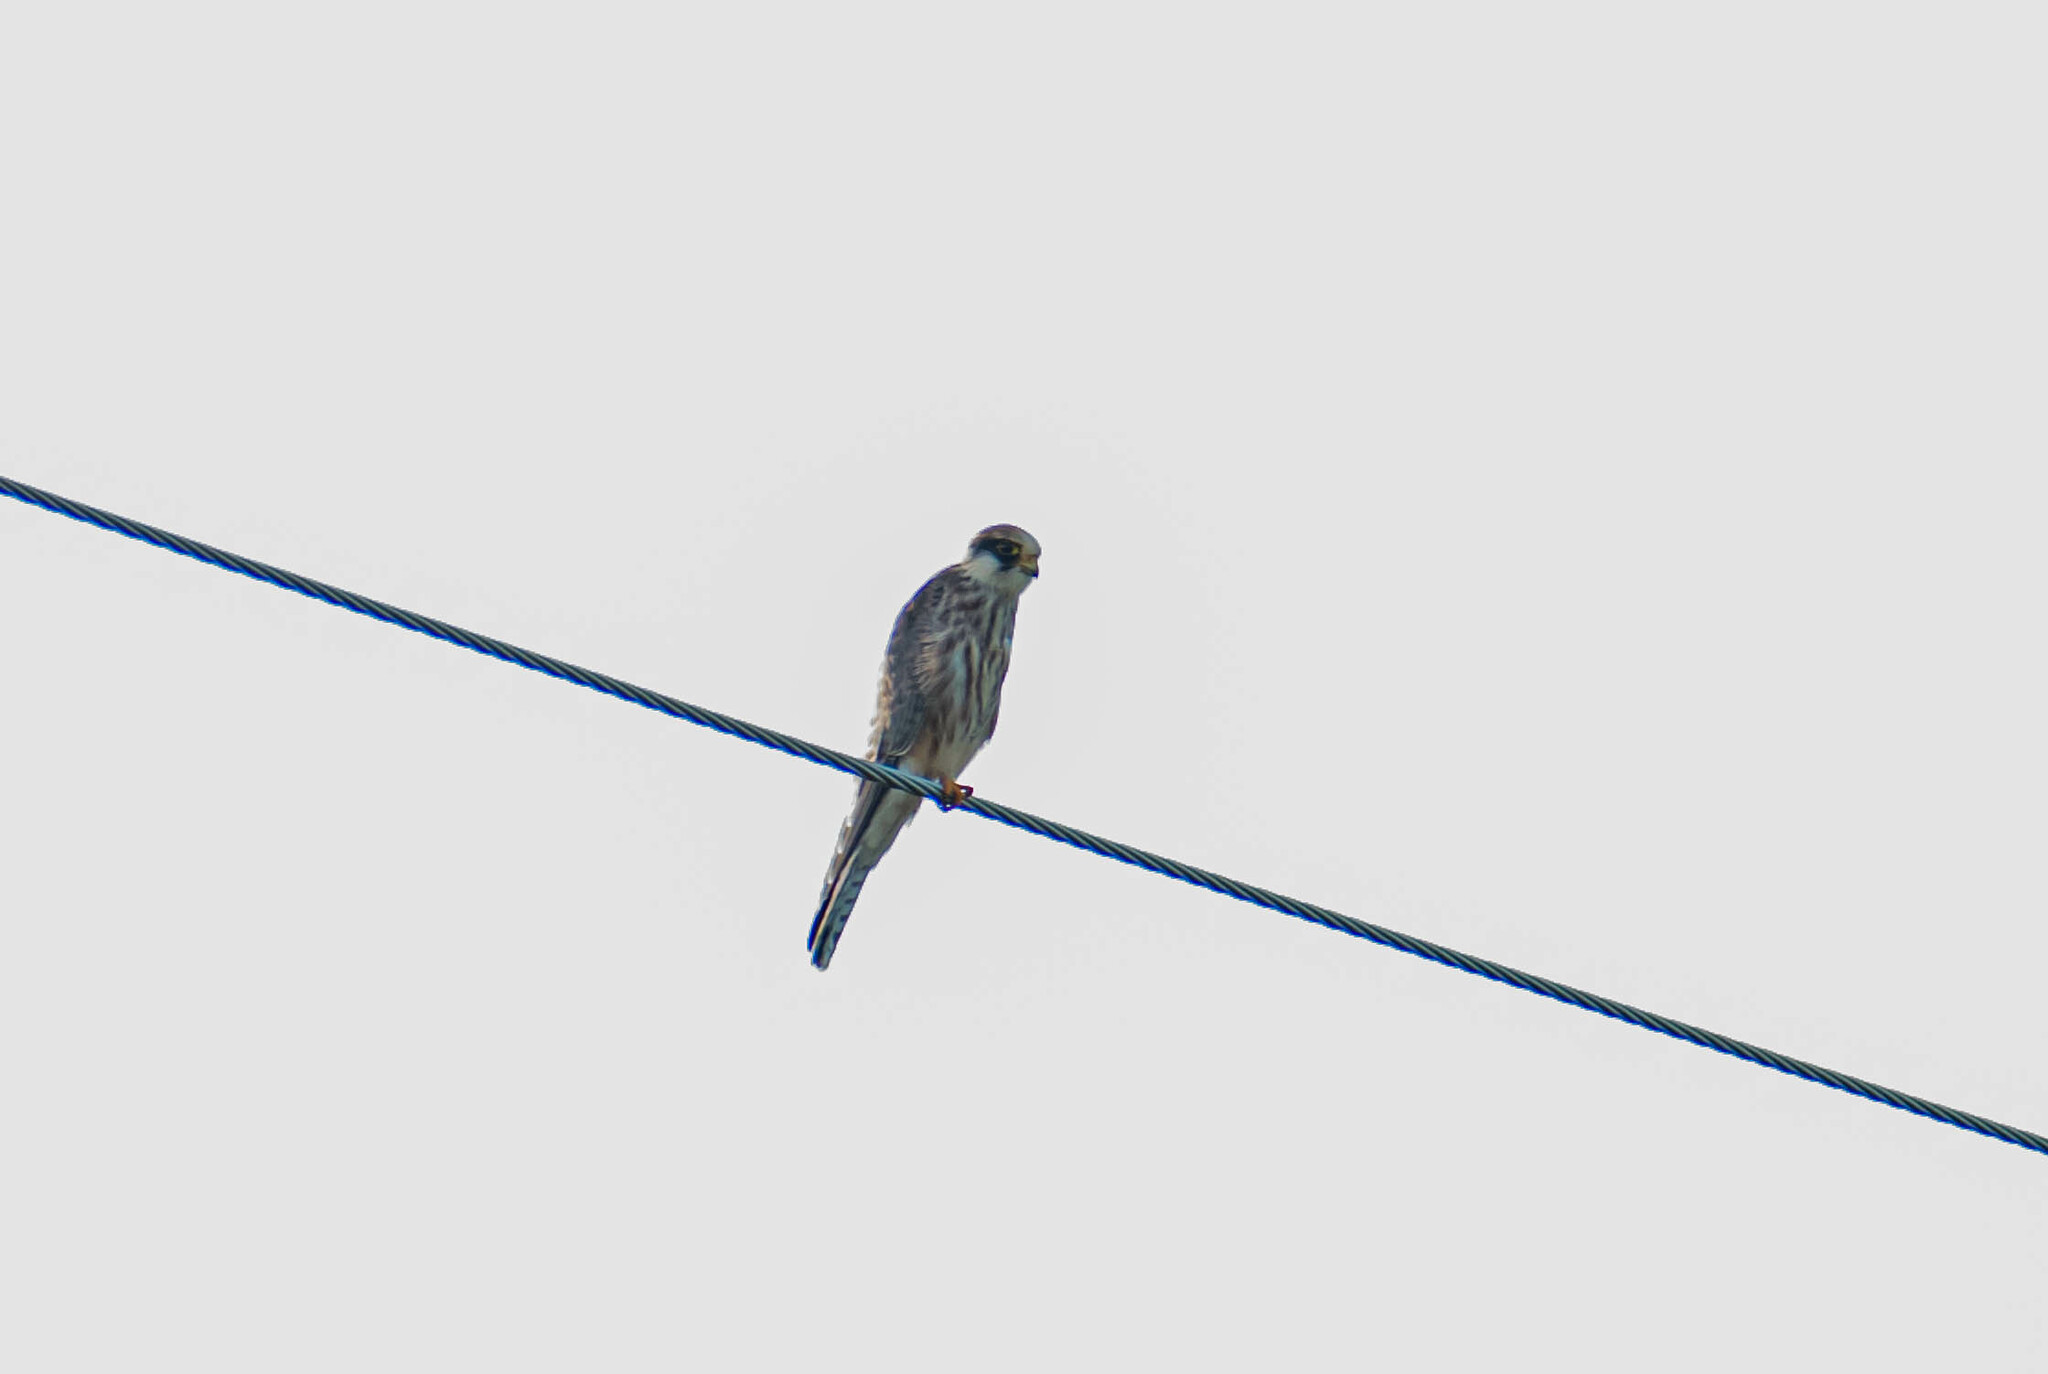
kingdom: Animalia
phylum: Chordata
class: Aves
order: Falconiformes
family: Falconidae
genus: Falco
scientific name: Falco vespertinus
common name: Red-footed falcon
